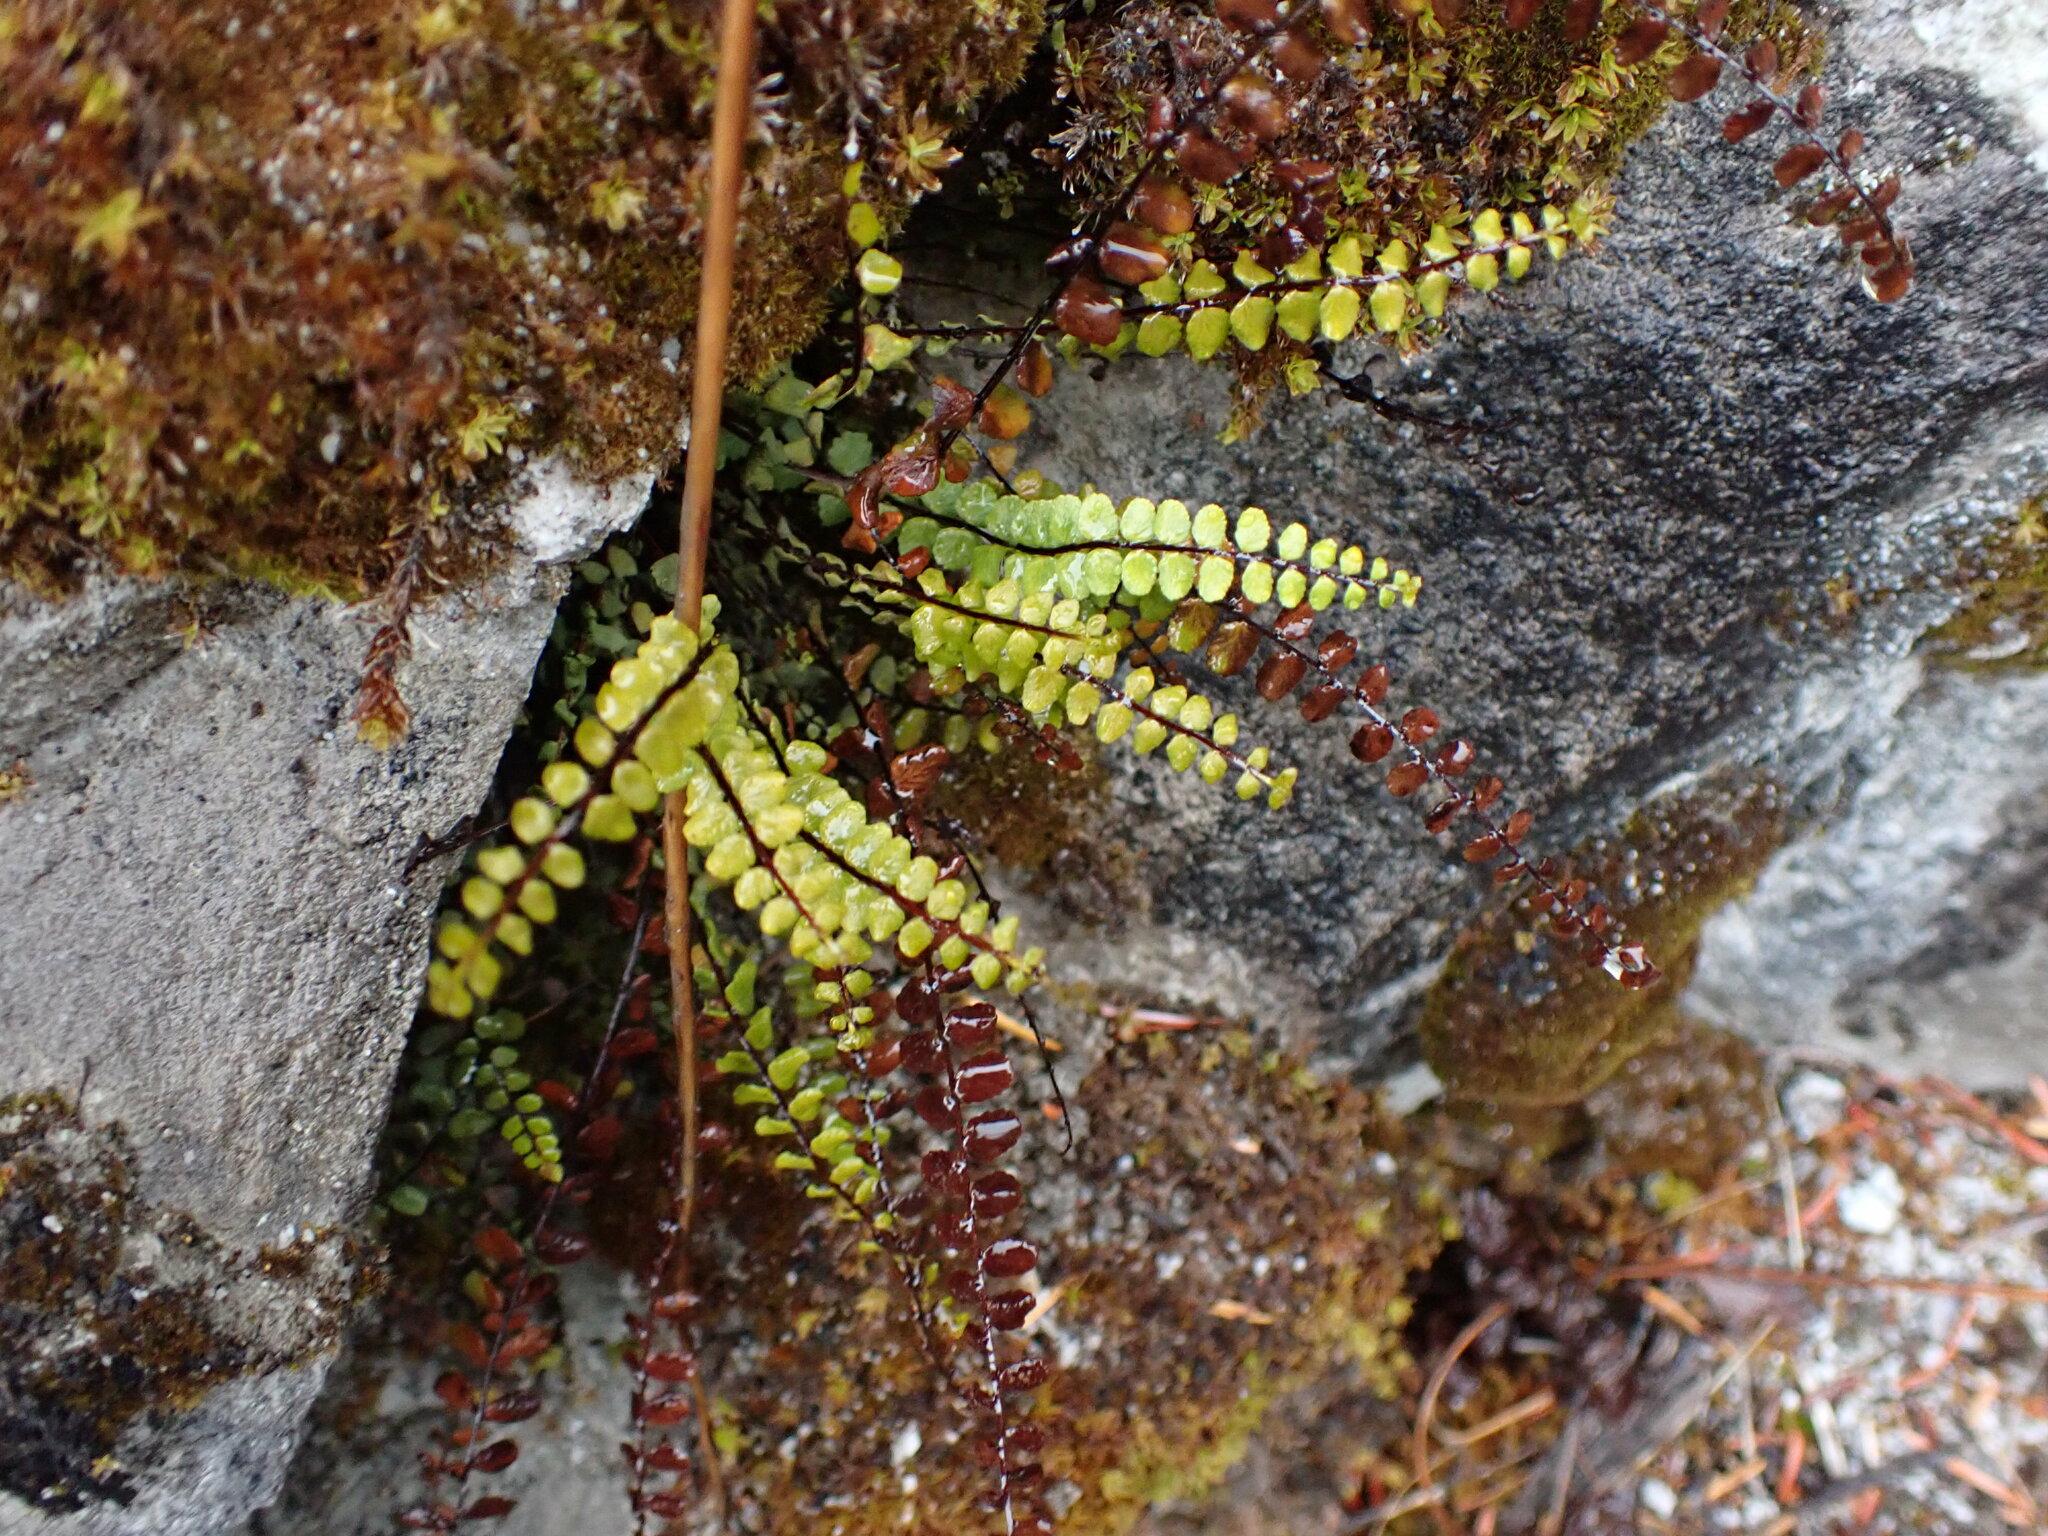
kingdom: Plantae
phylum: Tracheophyta
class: Polypodiopsida
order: Polypodiales
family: Aspleniaceae
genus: Asplenium
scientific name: Asplenium trichomanes
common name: Maidenhair spleenwort
